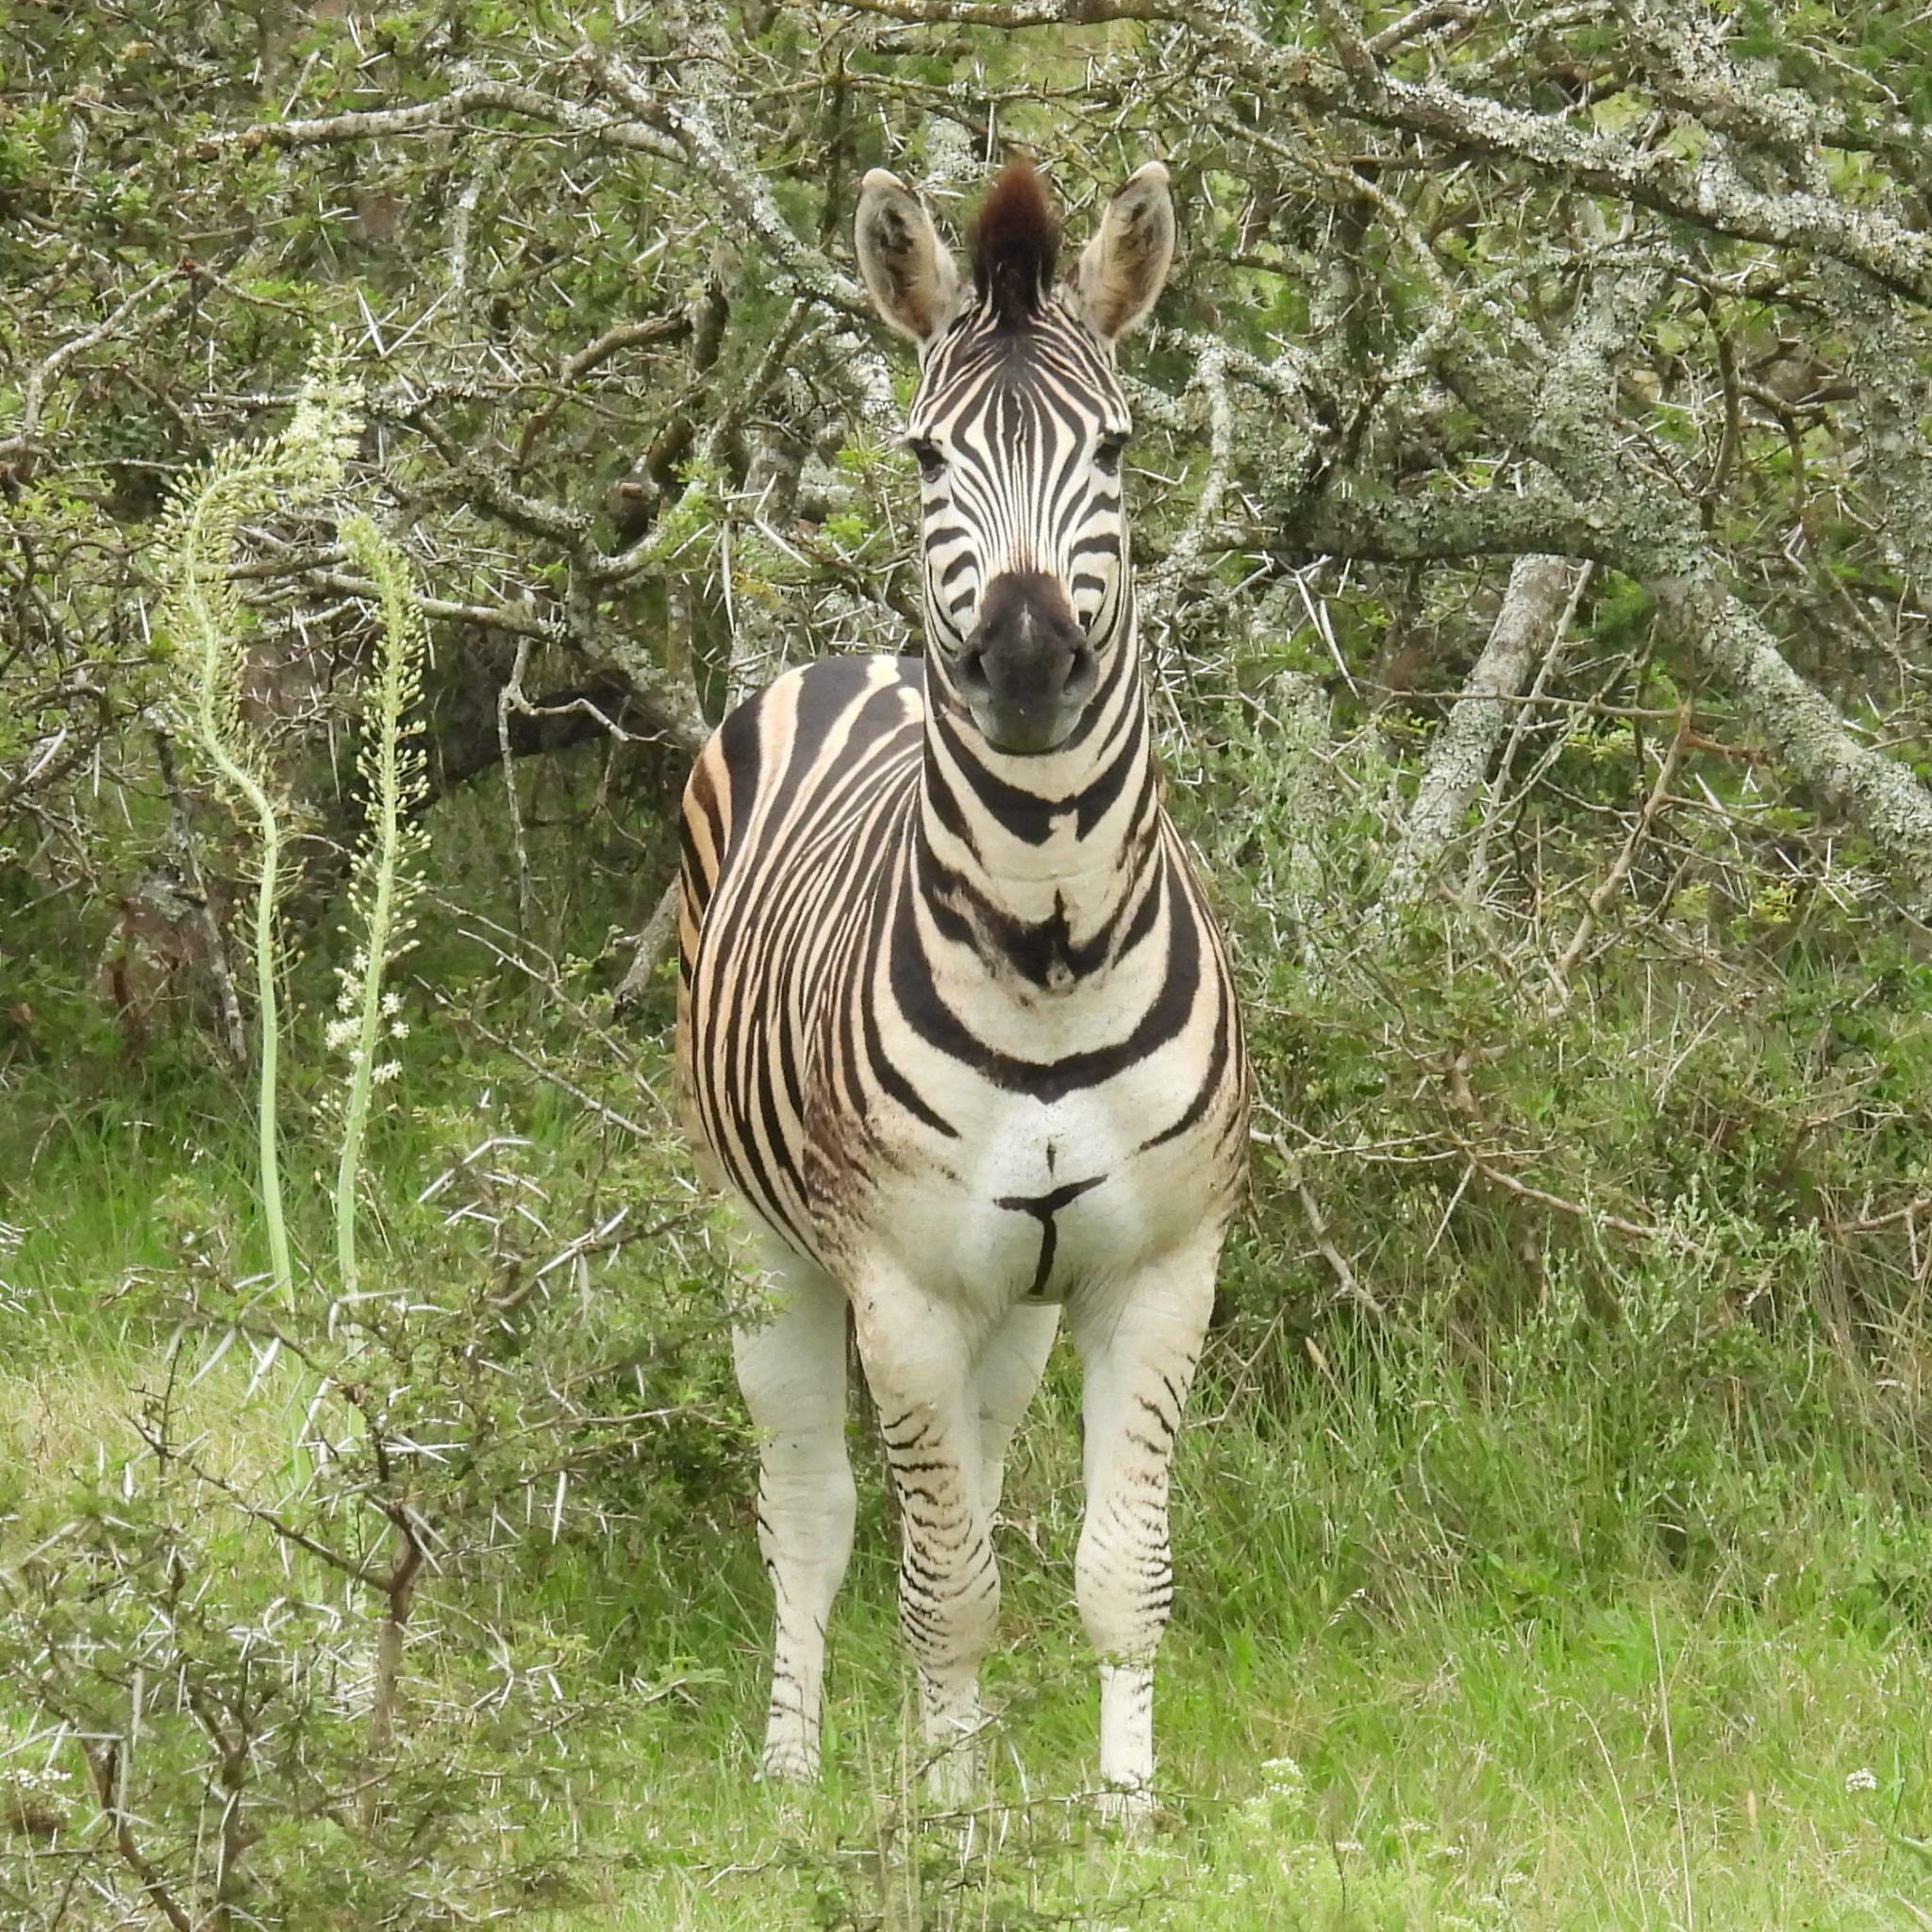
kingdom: Animalia
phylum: Chordata
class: Mammalia
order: Perissodactyla
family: Equidae
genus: Equus
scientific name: Equus quagga
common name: Plains zebra
